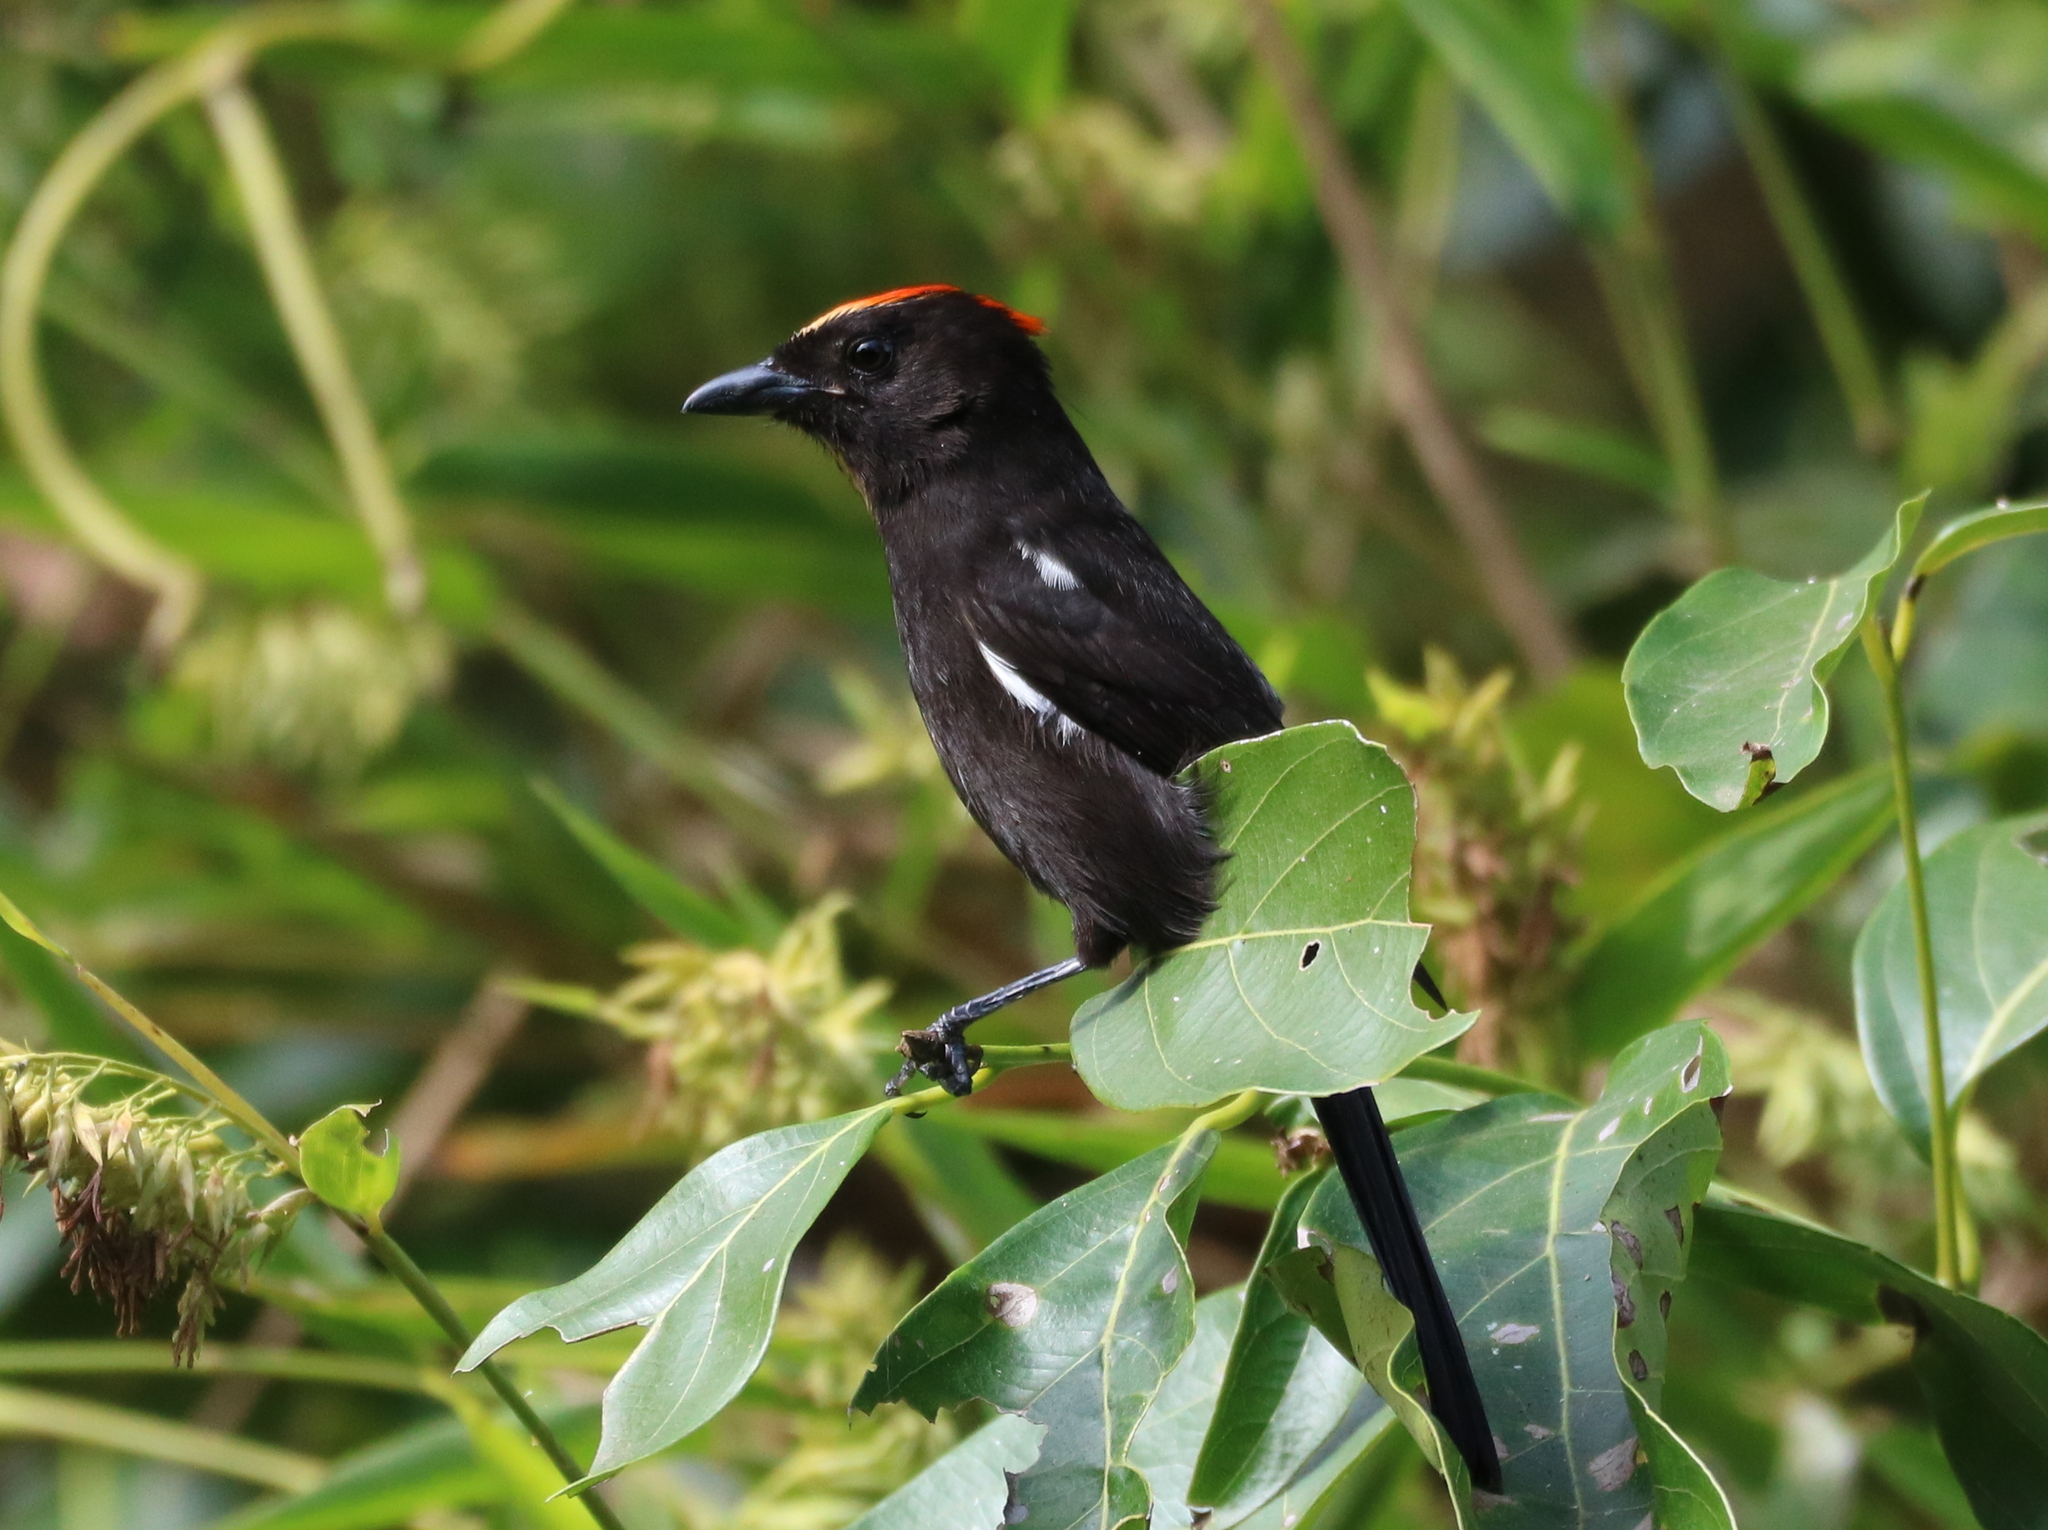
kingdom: Animalia
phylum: Chordata
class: Aves
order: Passeriformes
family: Thraupidae
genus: Loriotus
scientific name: Loriotus cristatus
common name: Flame-crested tanager
